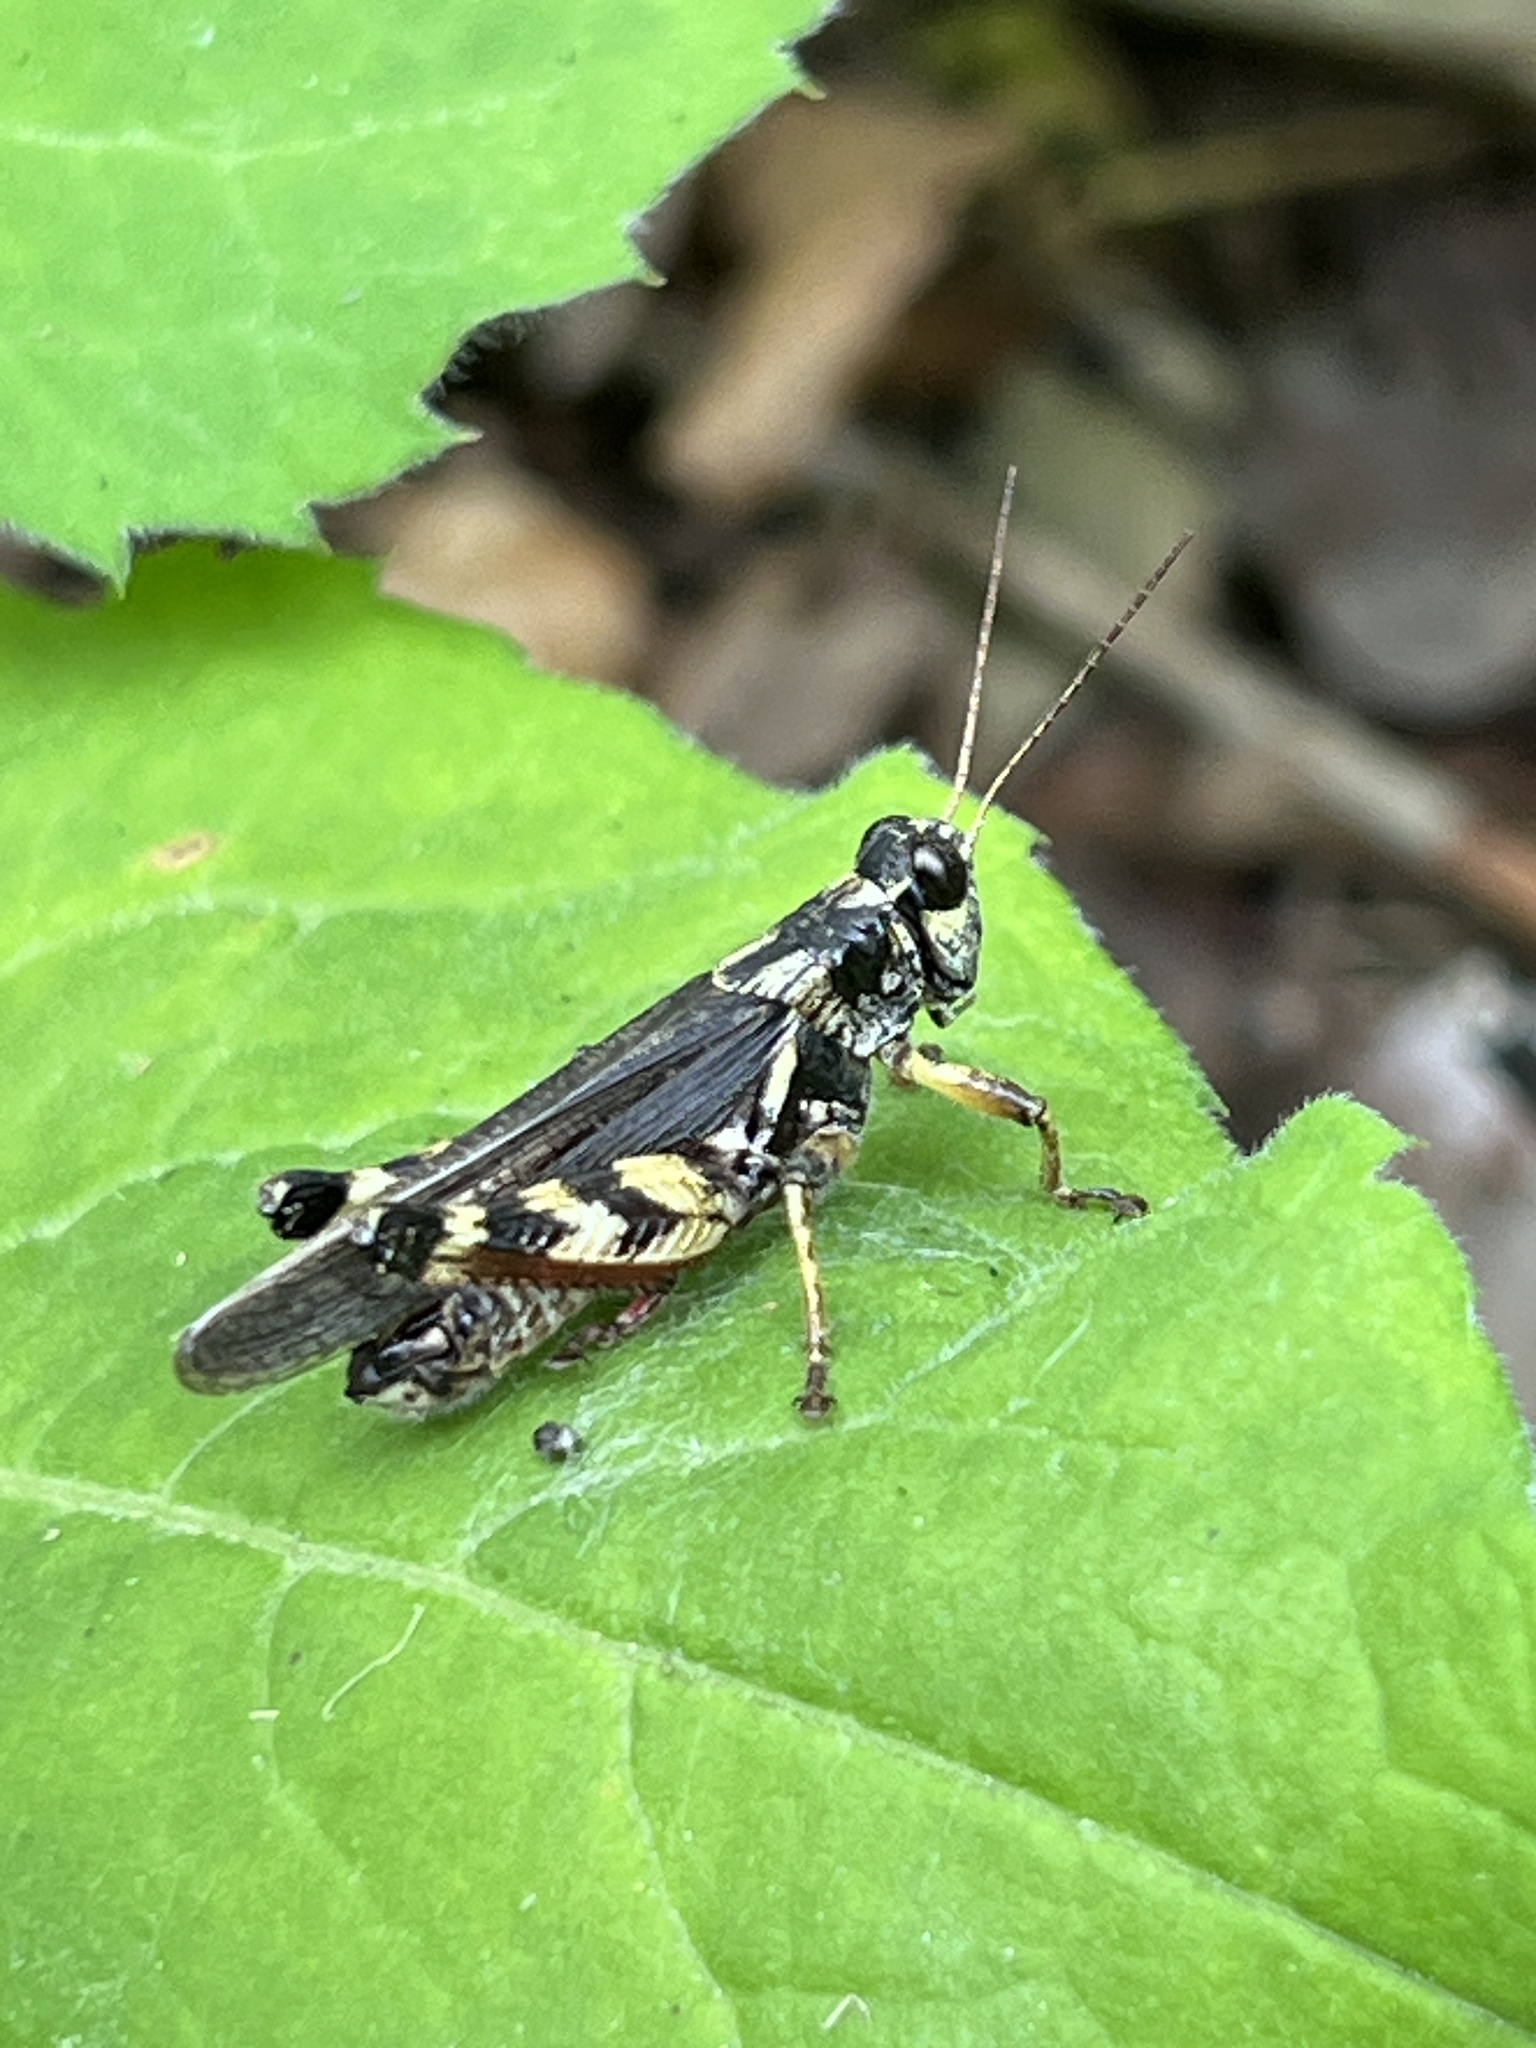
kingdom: Animalia
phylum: Arthropoda
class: Insecta
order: Orthoptera
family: Acrididae
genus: Melanoplus
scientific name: Melanoplus fasciatus
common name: Huckleberry locust
